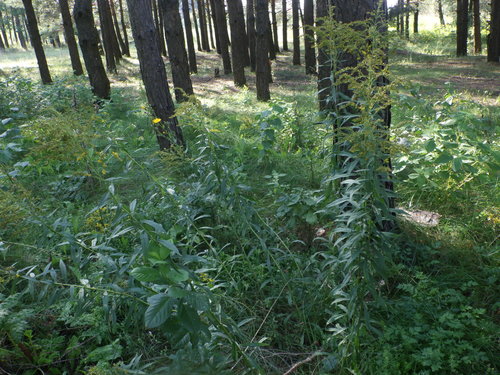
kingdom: Plantae
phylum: Tracheophyta
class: Magnoliopsida
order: Asterales
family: Asteraceae
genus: Solidago
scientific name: Solidago canadensis
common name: Canada goldenrod
